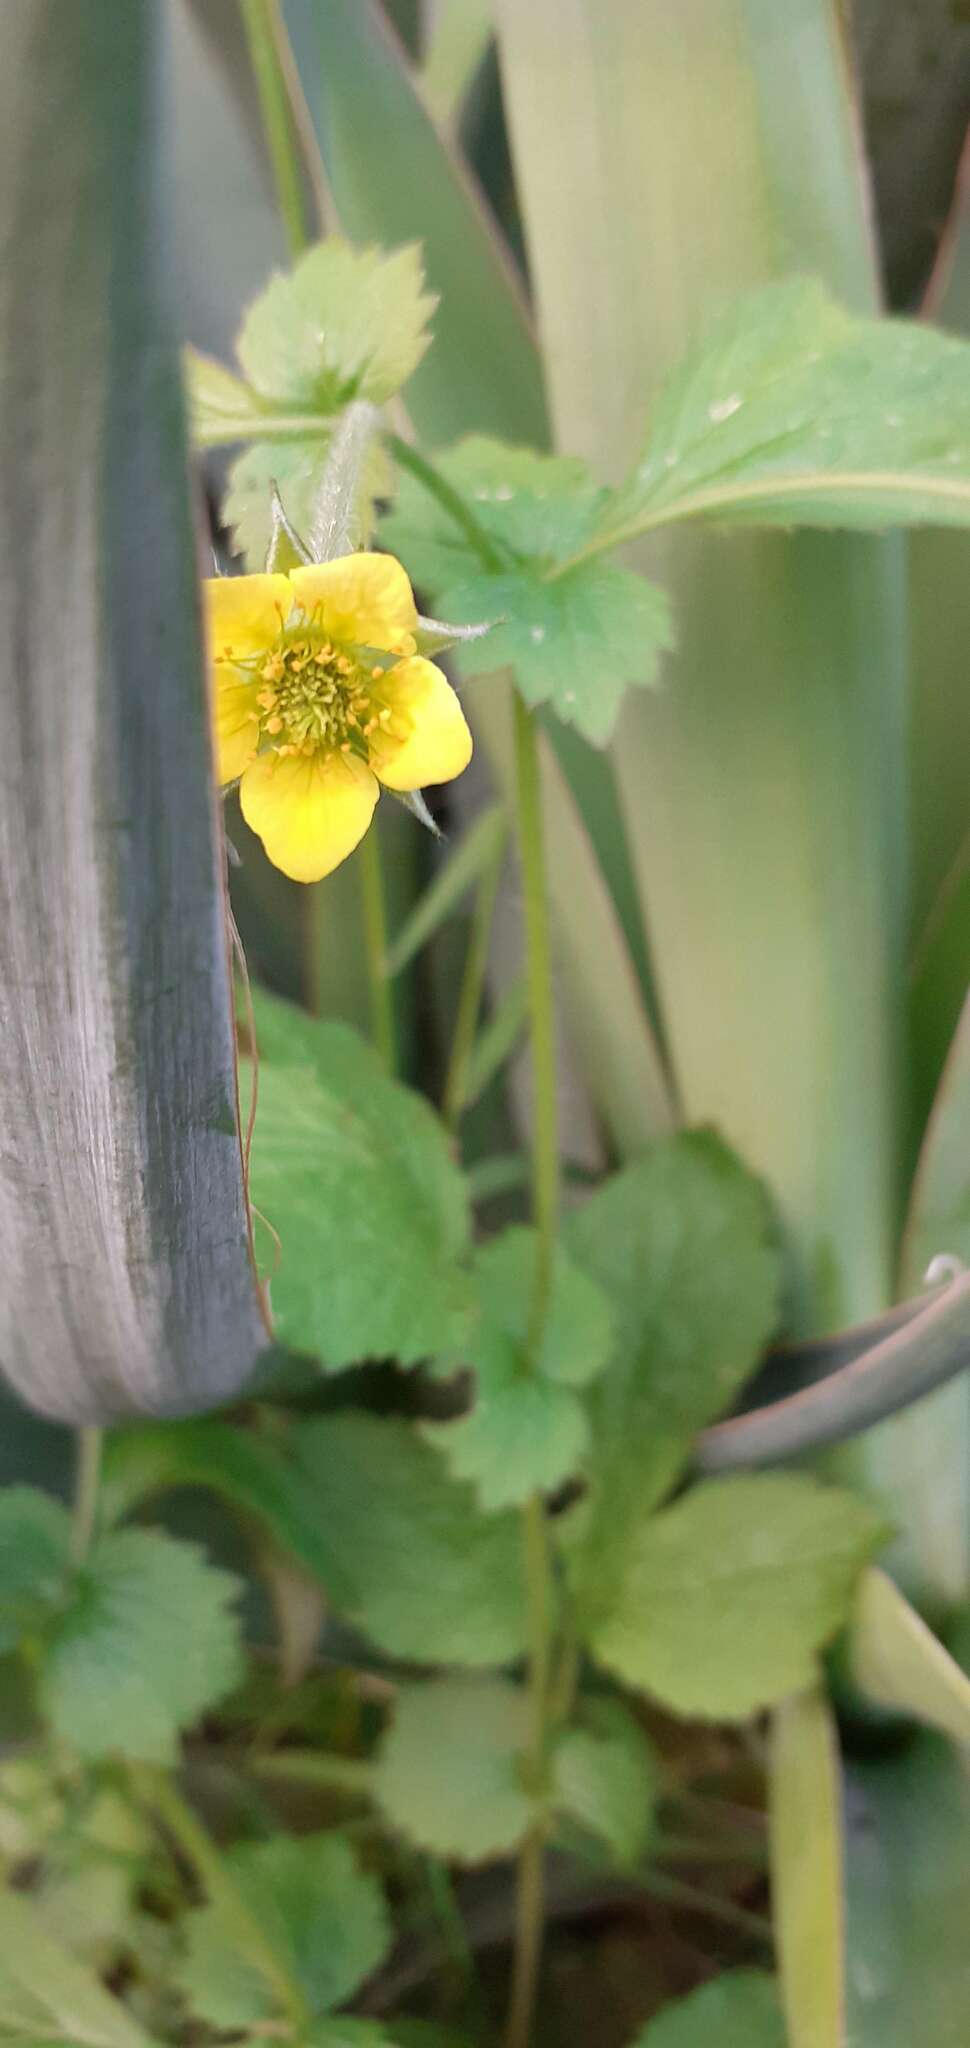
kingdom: Plantae
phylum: Tracheophyta
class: Magnoliopsida
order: Rosales
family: Rosaceae
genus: Geum
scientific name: Geum urbanum
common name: Wood avens
